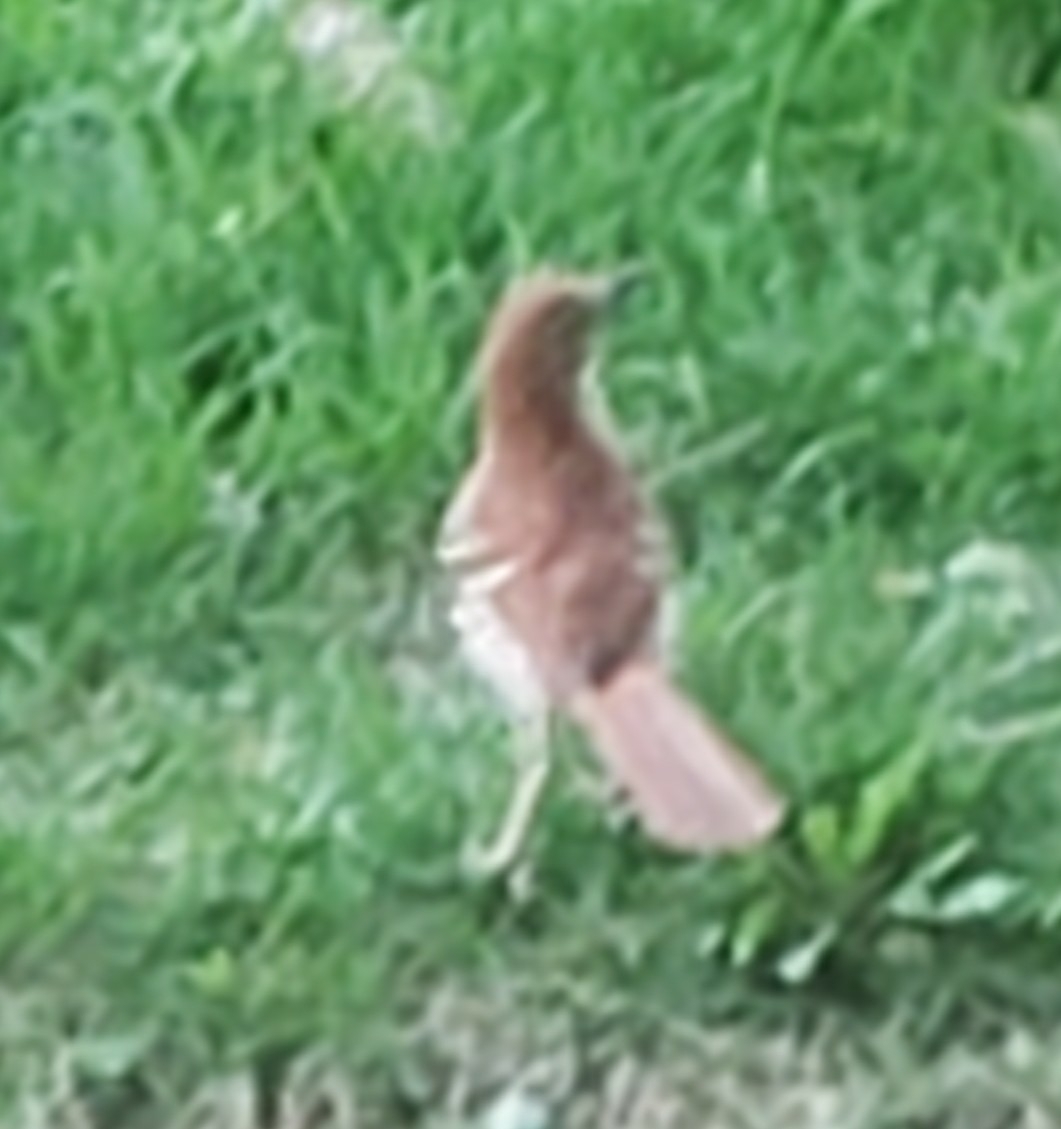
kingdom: Animalia
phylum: Chordata
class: Aves
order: Passeriformes
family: Mimidae
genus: Toxostoma
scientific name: Toxostoma rufum
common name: Brown thrasher
